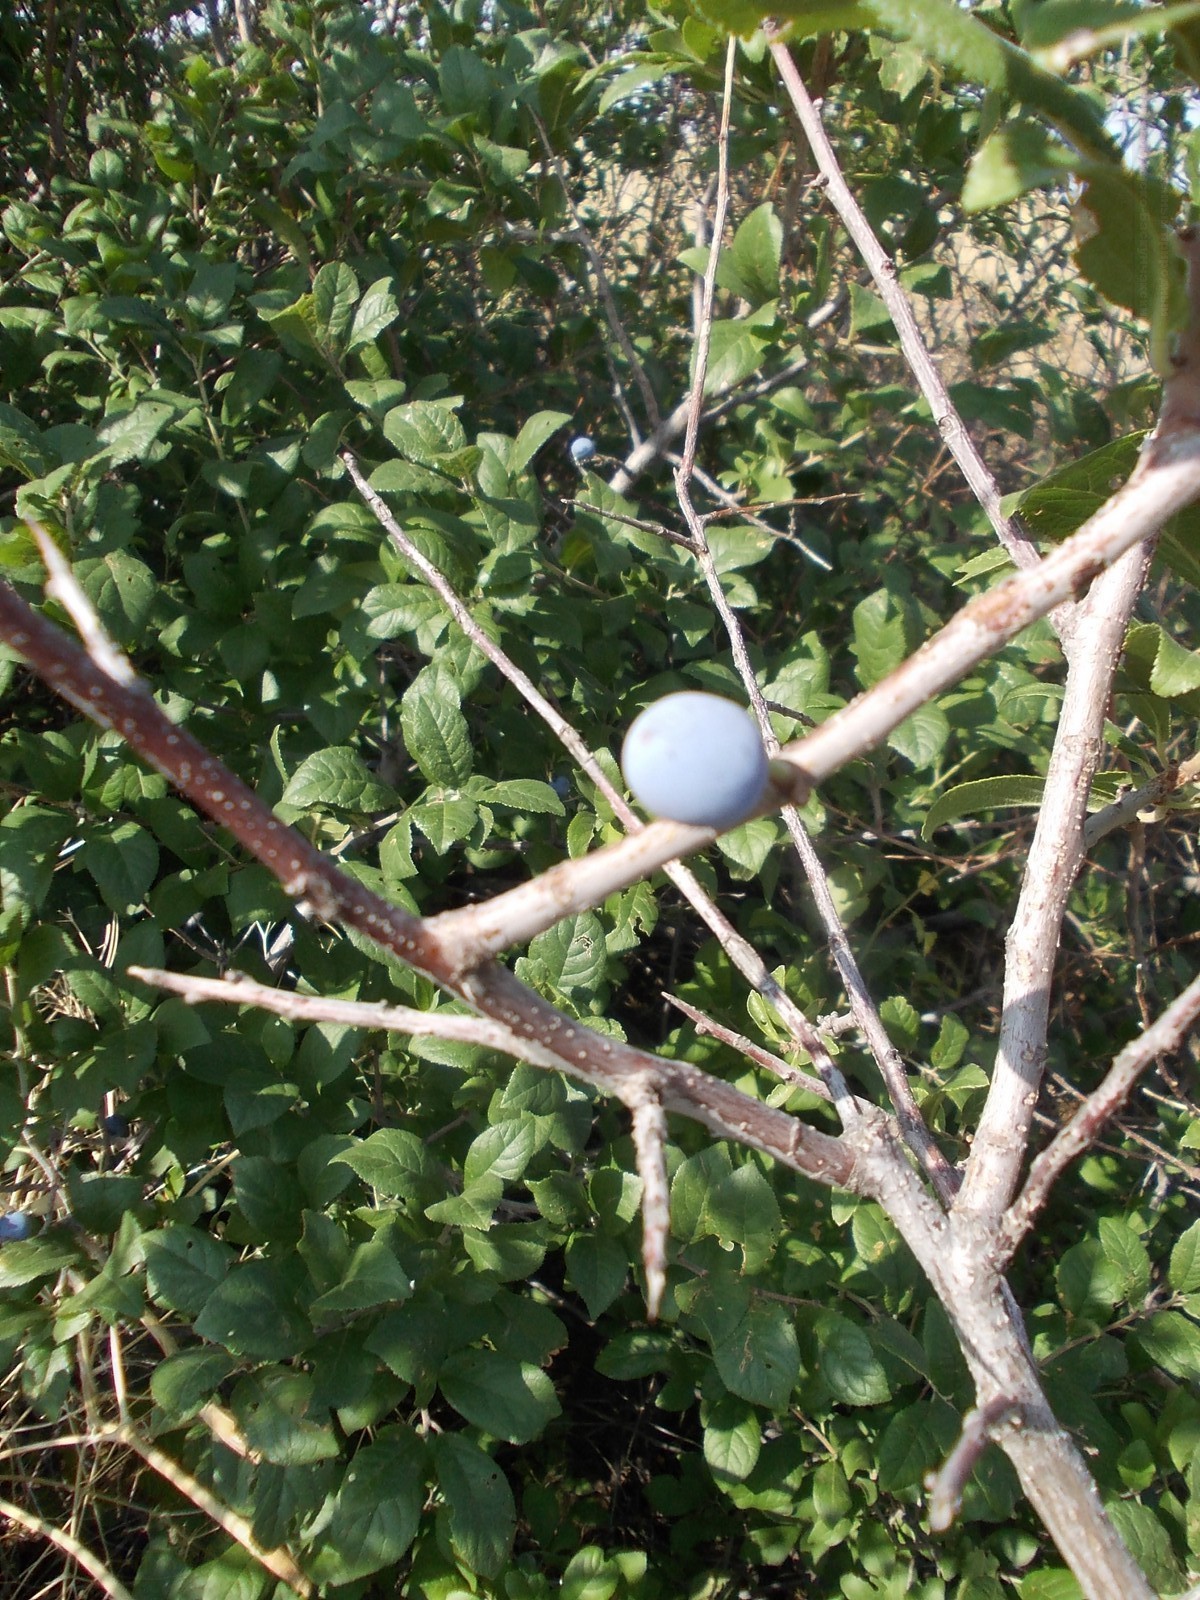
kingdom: Plantae
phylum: Tracheophyta
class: Magnoliopsida
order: Rosales
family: Rosaceae
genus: Prunus
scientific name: Prunus spinosa
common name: Blackthorn
